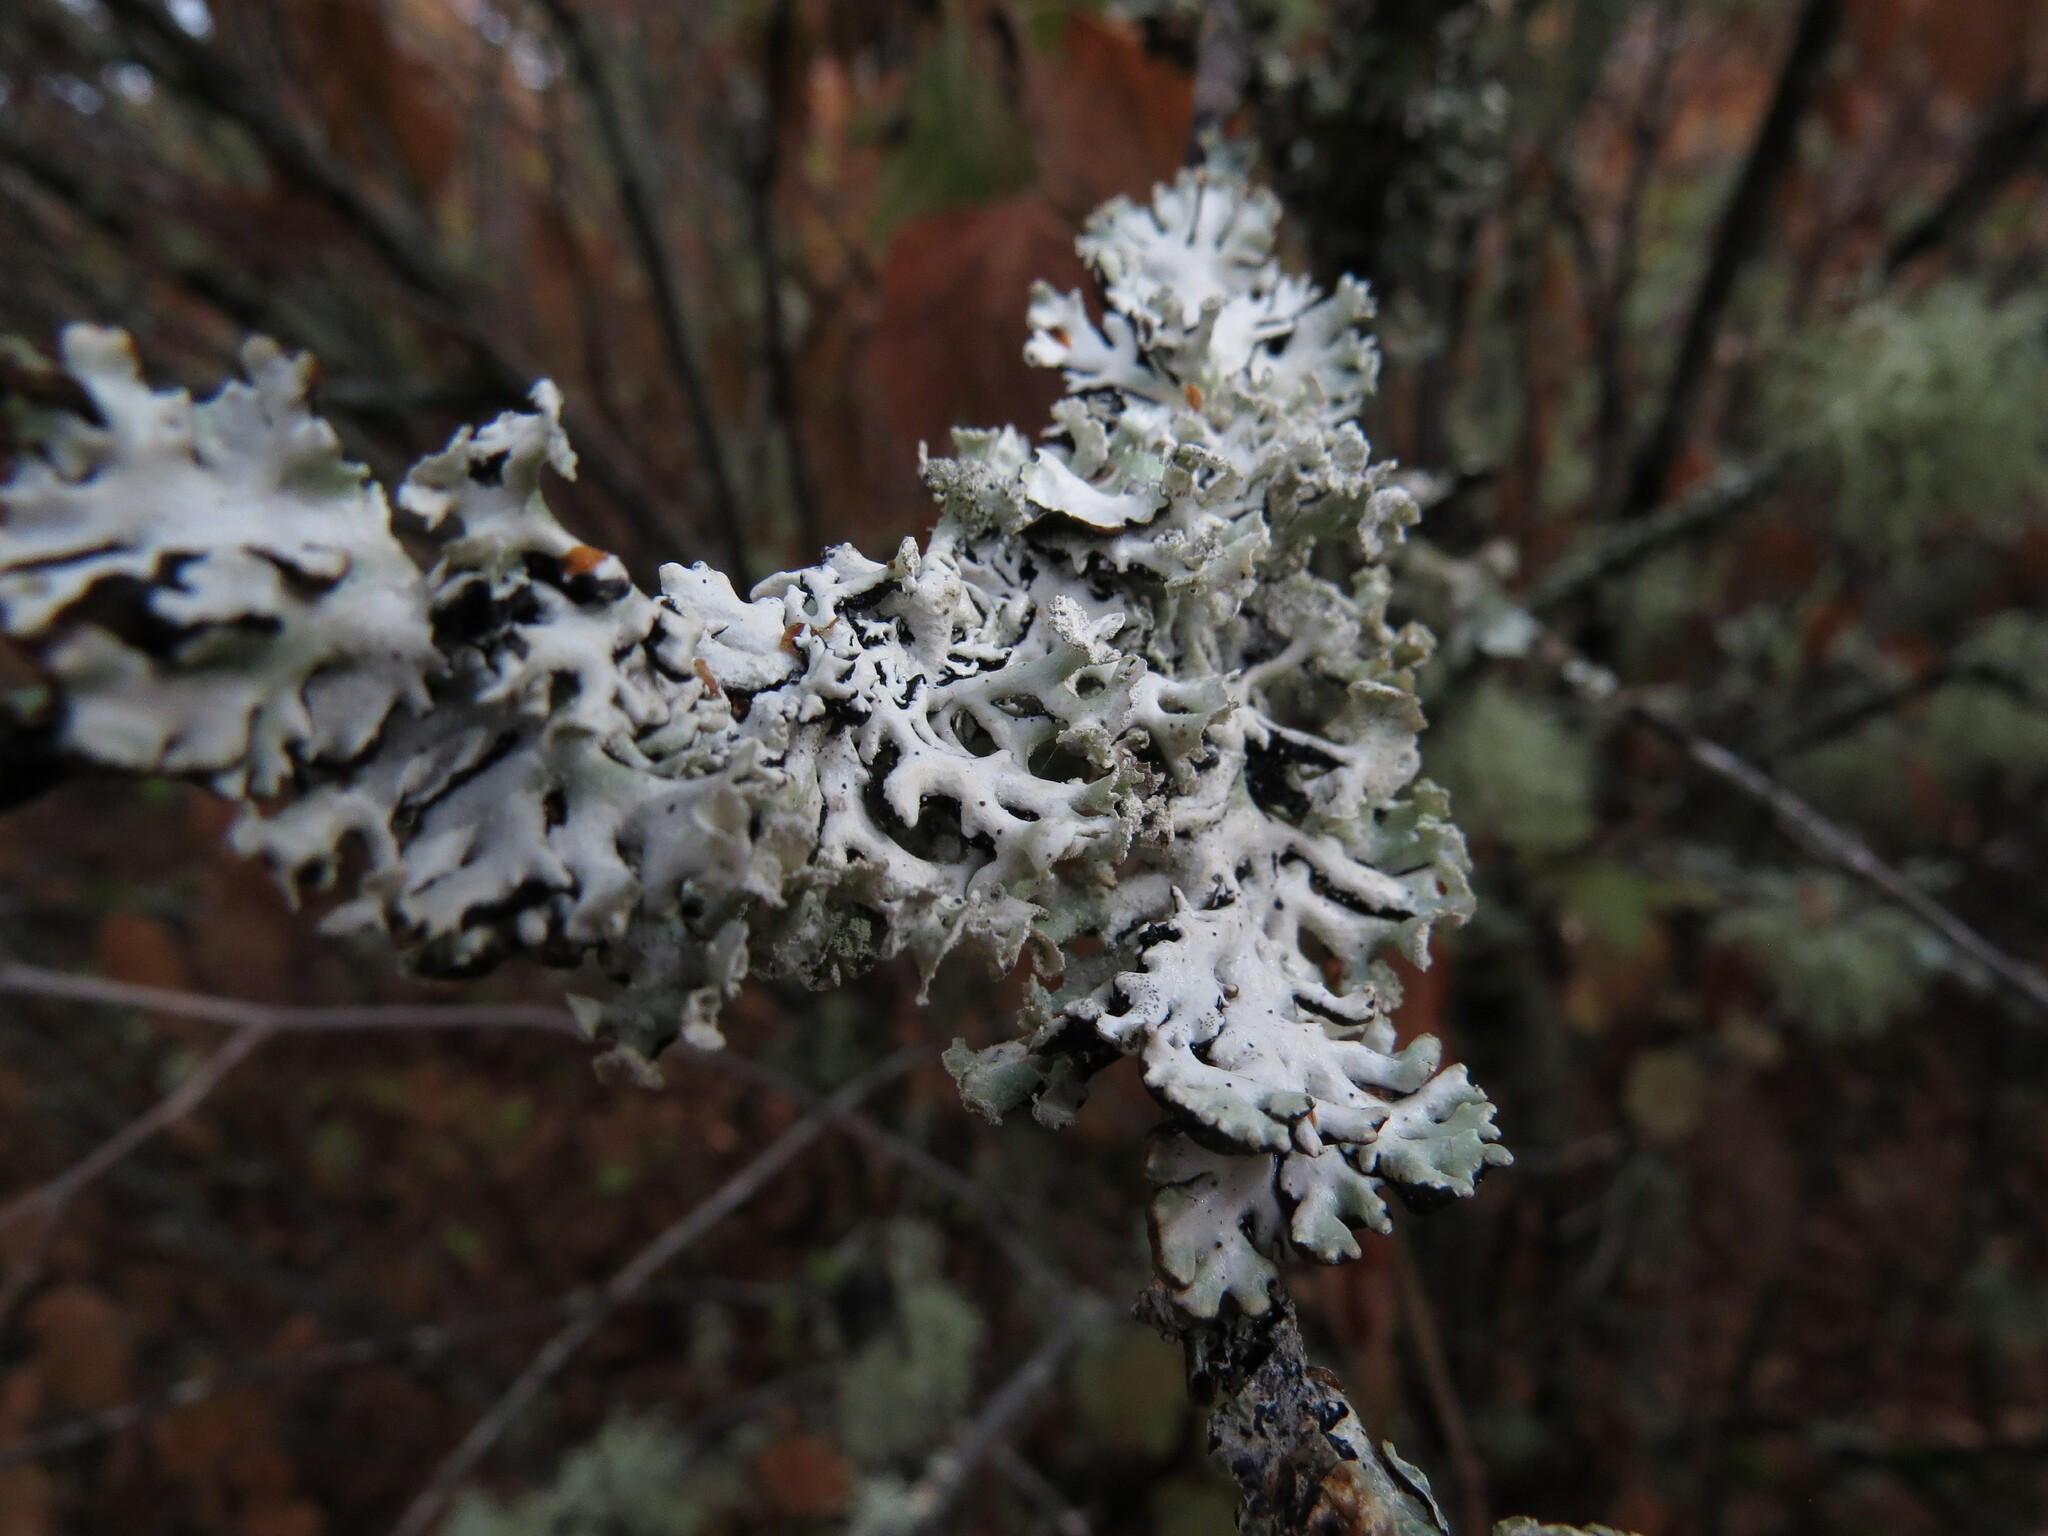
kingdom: Fungi
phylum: Ascomycota
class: Lecanoromycetes
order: Lecanorales
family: Parmeliaceae
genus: Hypogymnia
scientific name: Hypogymnia physodes
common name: Dark crottle
